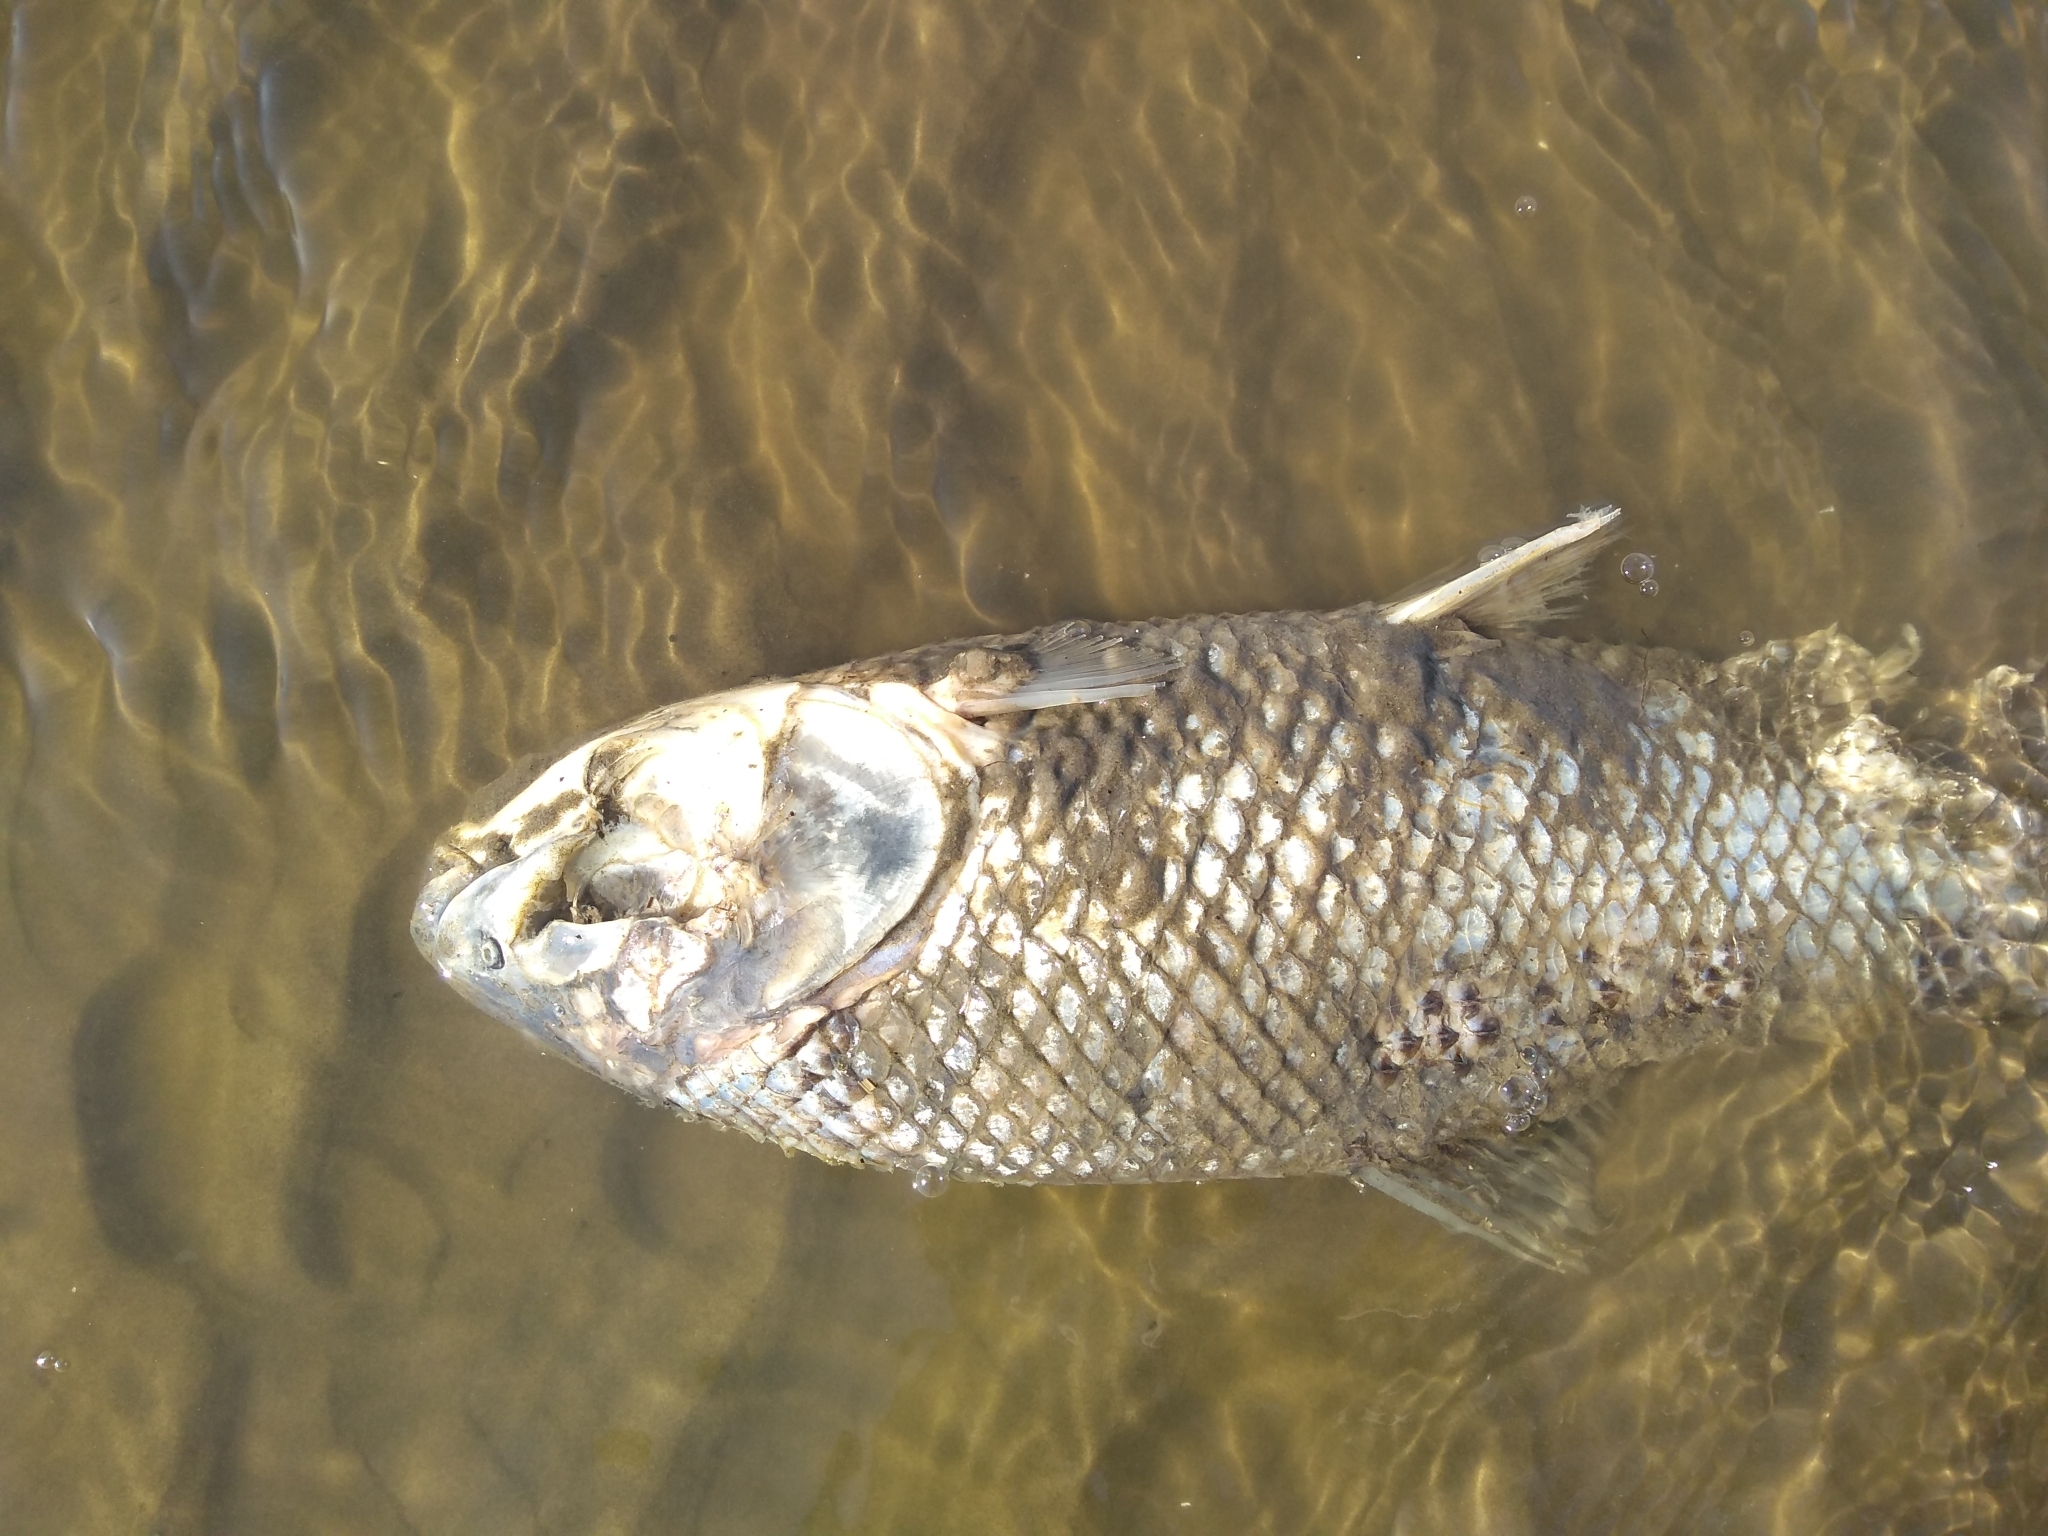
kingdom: Animalia
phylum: Chordata
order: Characiformes
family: Prochilodontidae
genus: Prochilodus
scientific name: Prochilodus lineatus
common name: Curimbata
